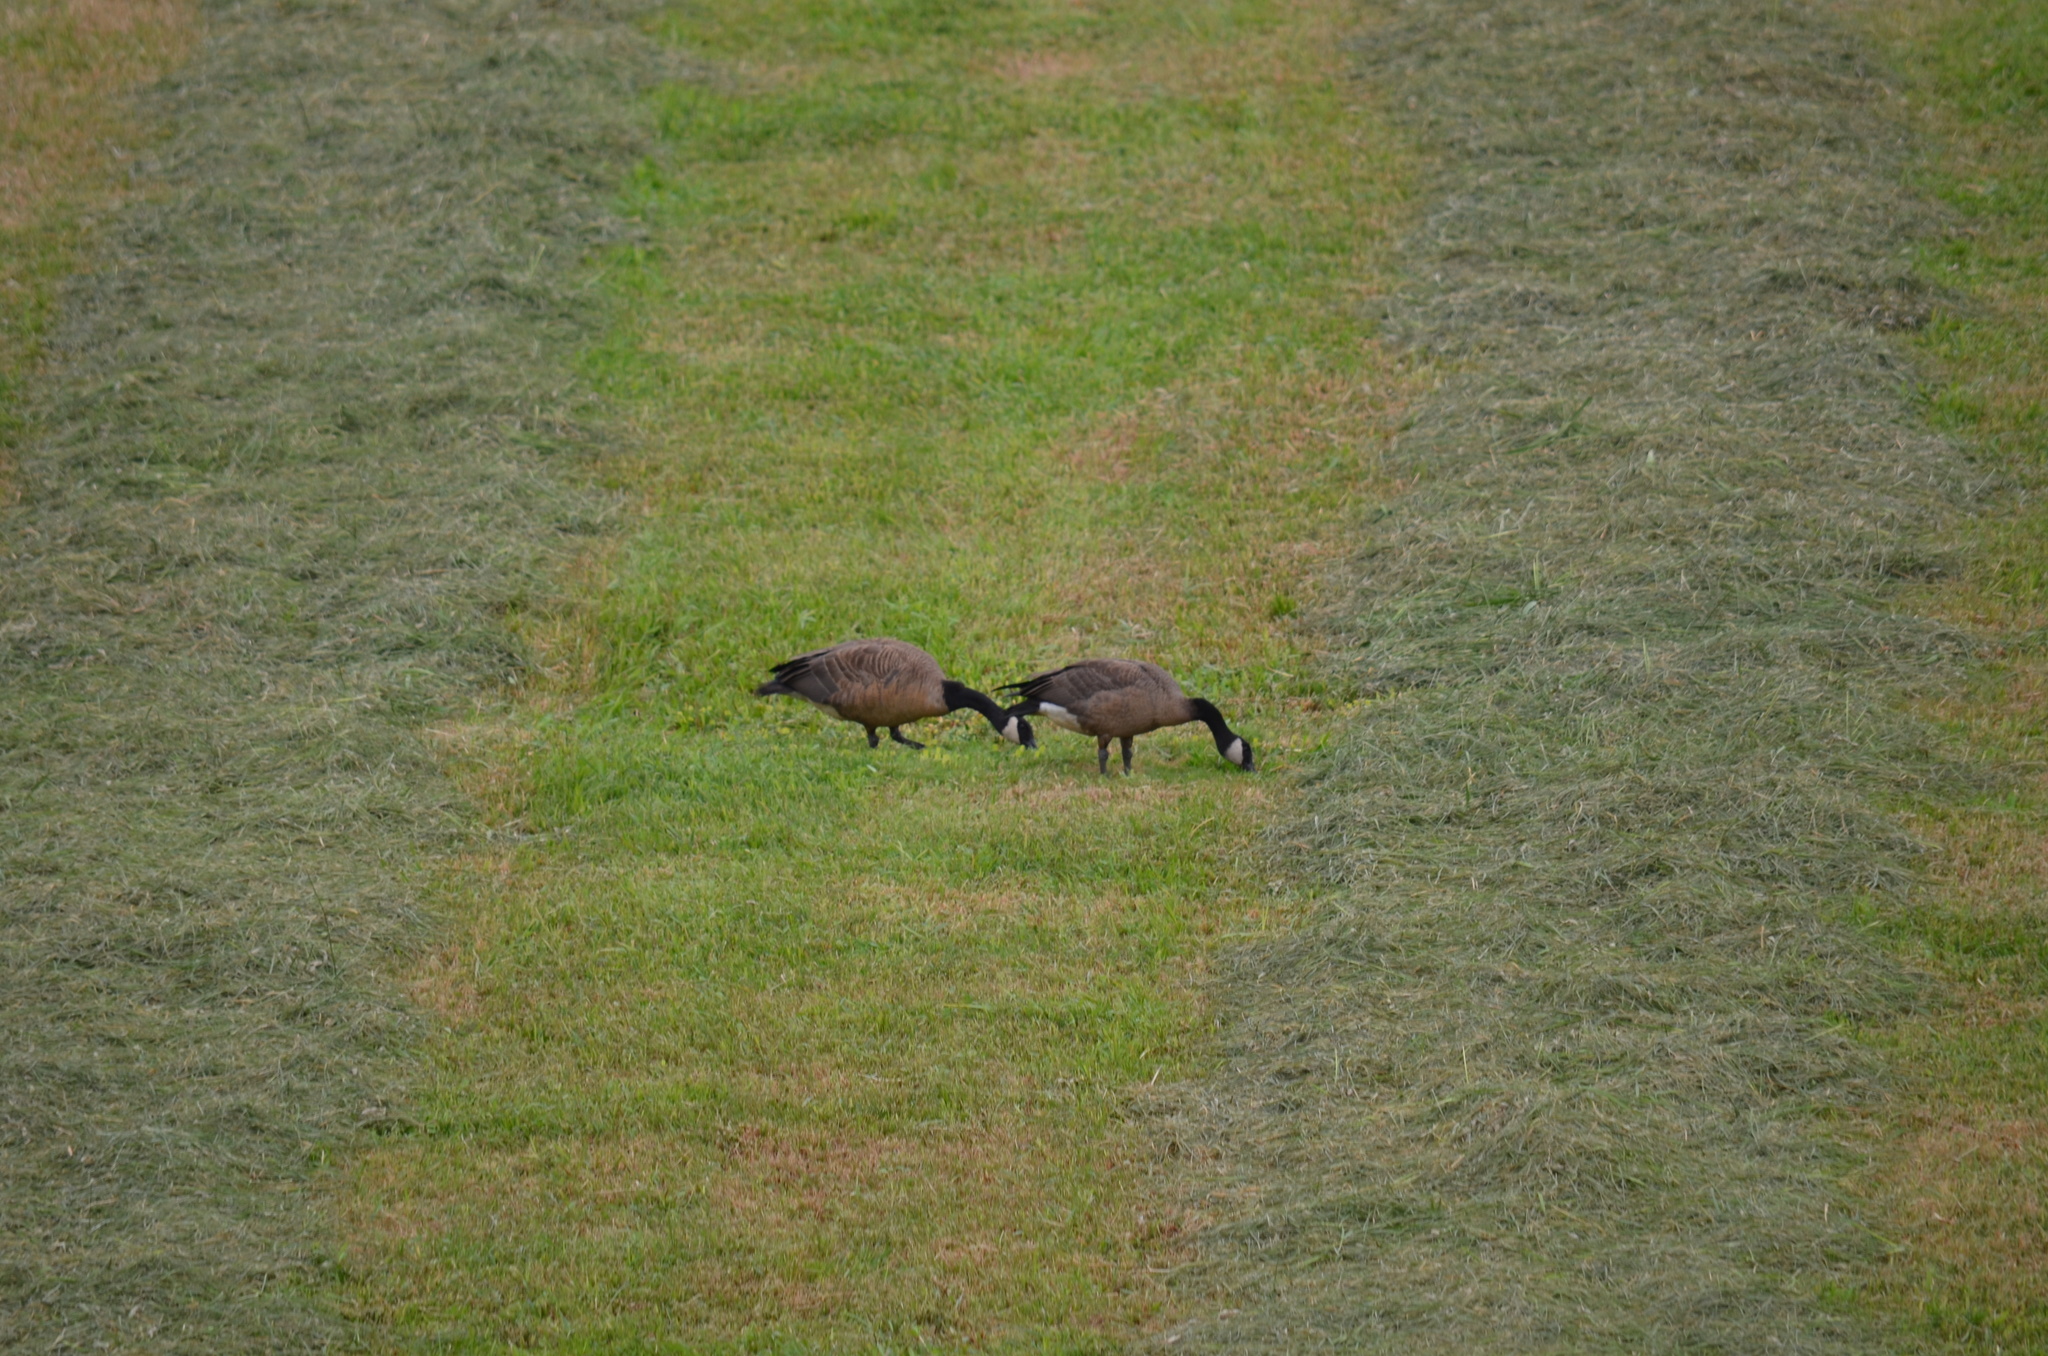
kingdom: Animalia
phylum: Chordata
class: Aves
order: Anseriformes
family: Anatidae
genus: Branta
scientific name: Branta canadensis
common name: Canada goose
